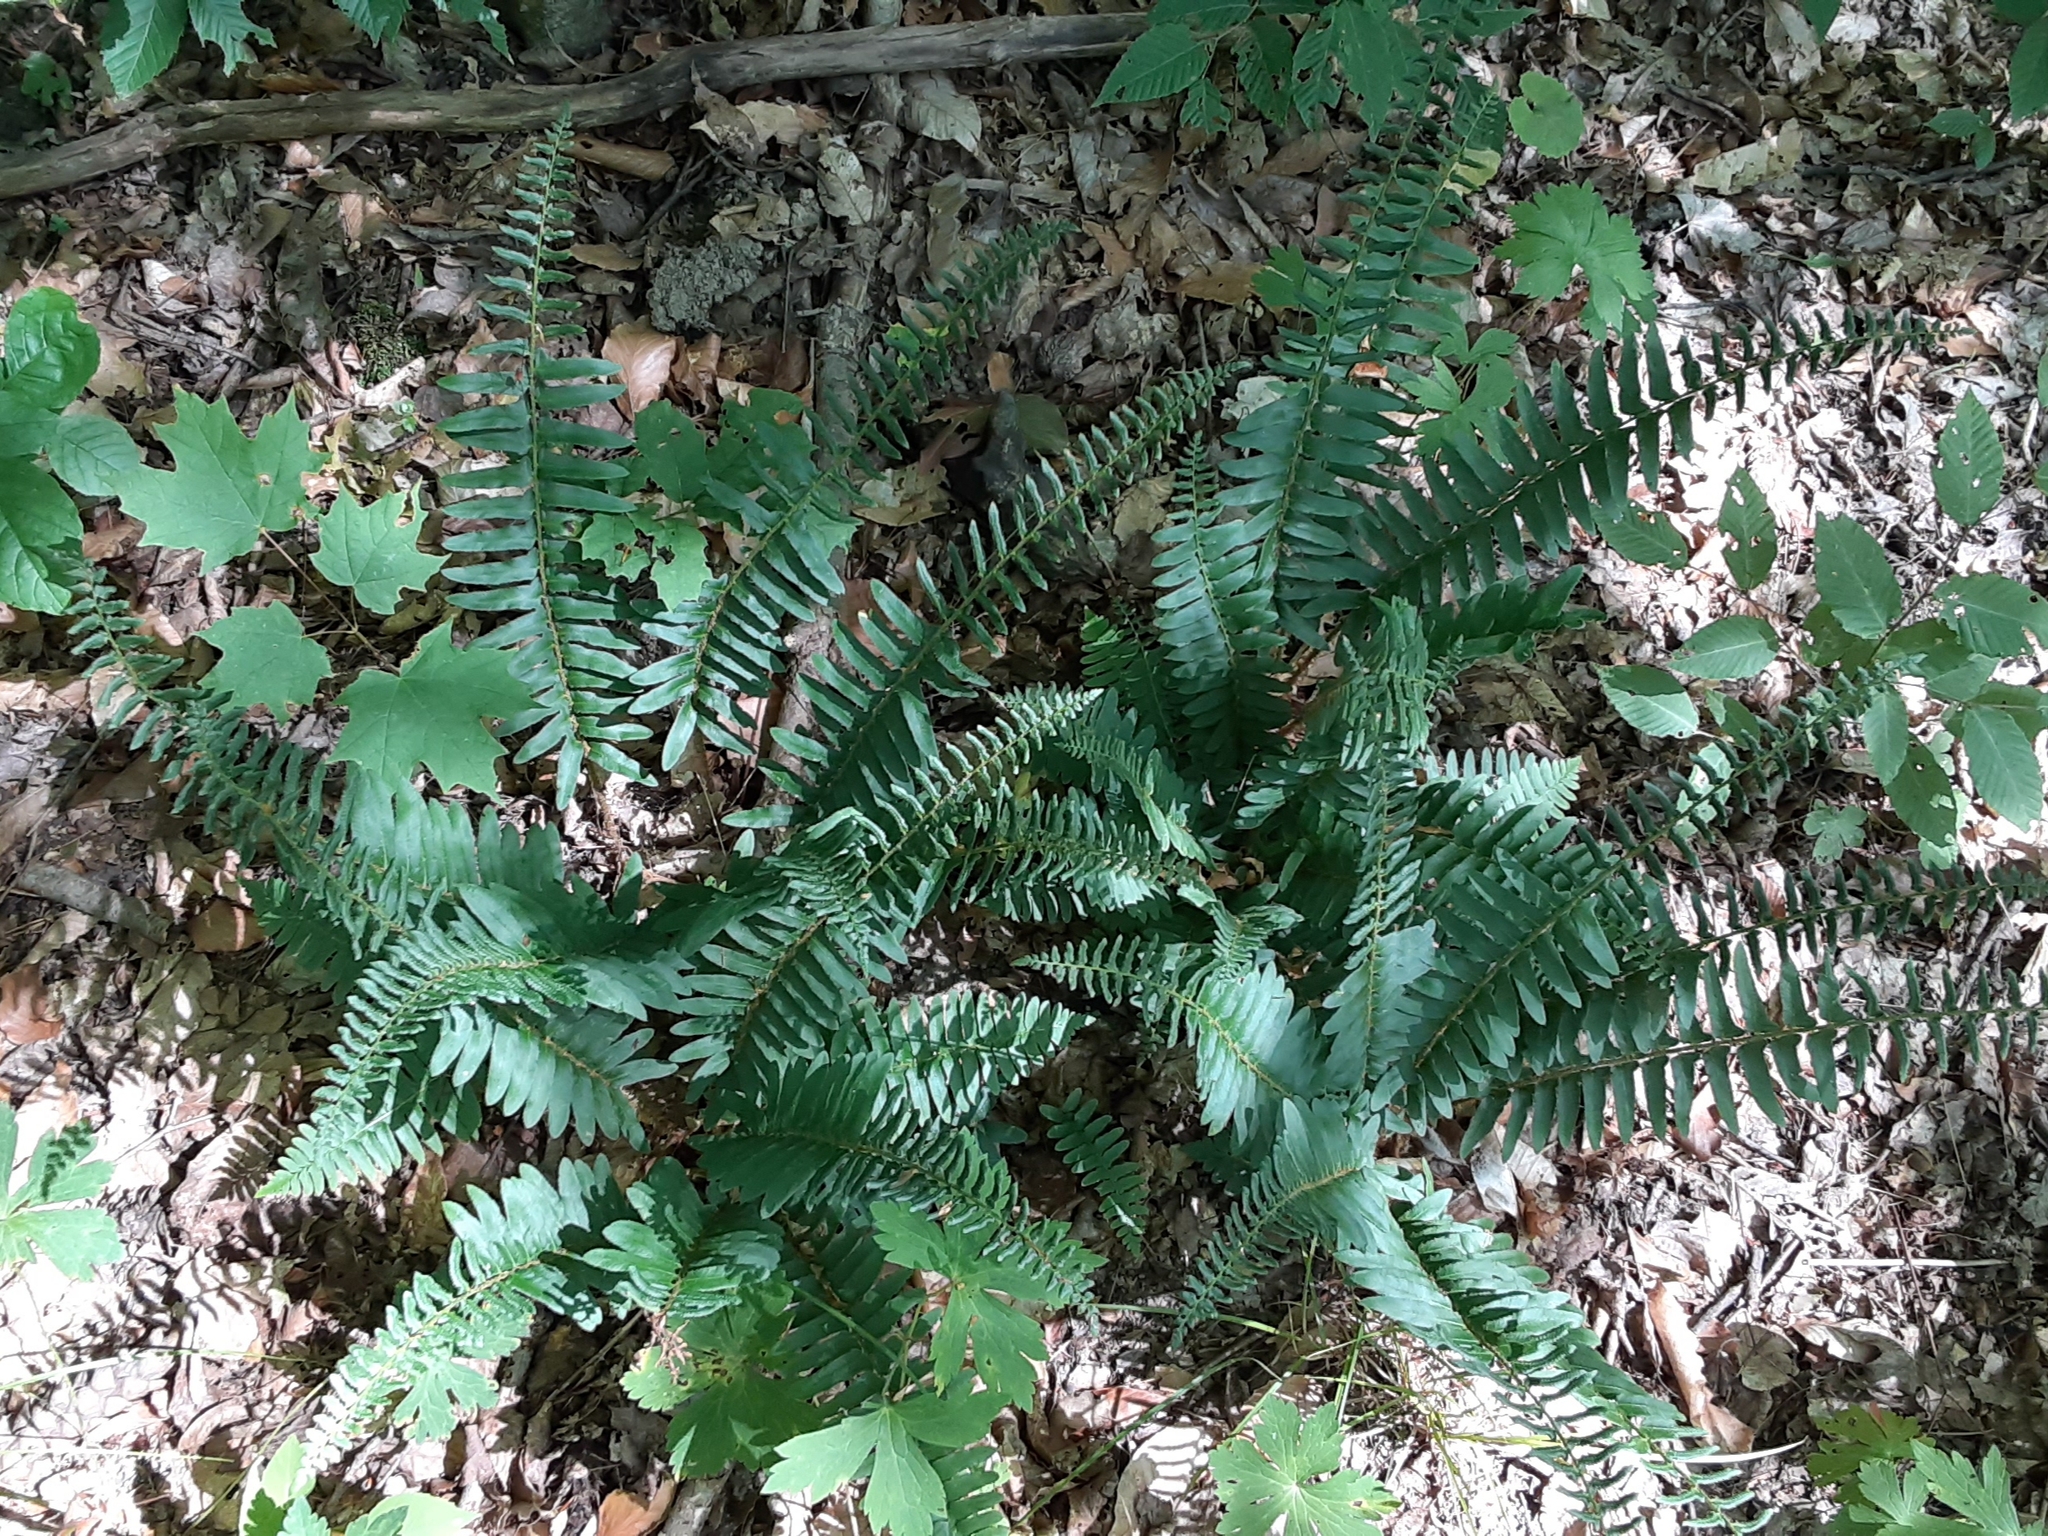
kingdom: Plantae
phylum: Tracheophyta
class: Polypodiopsida
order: Polypodiales
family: Dryopteridaceae
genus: Polystichum
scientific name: Polystichum acrostichoides
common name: Christmas fern
